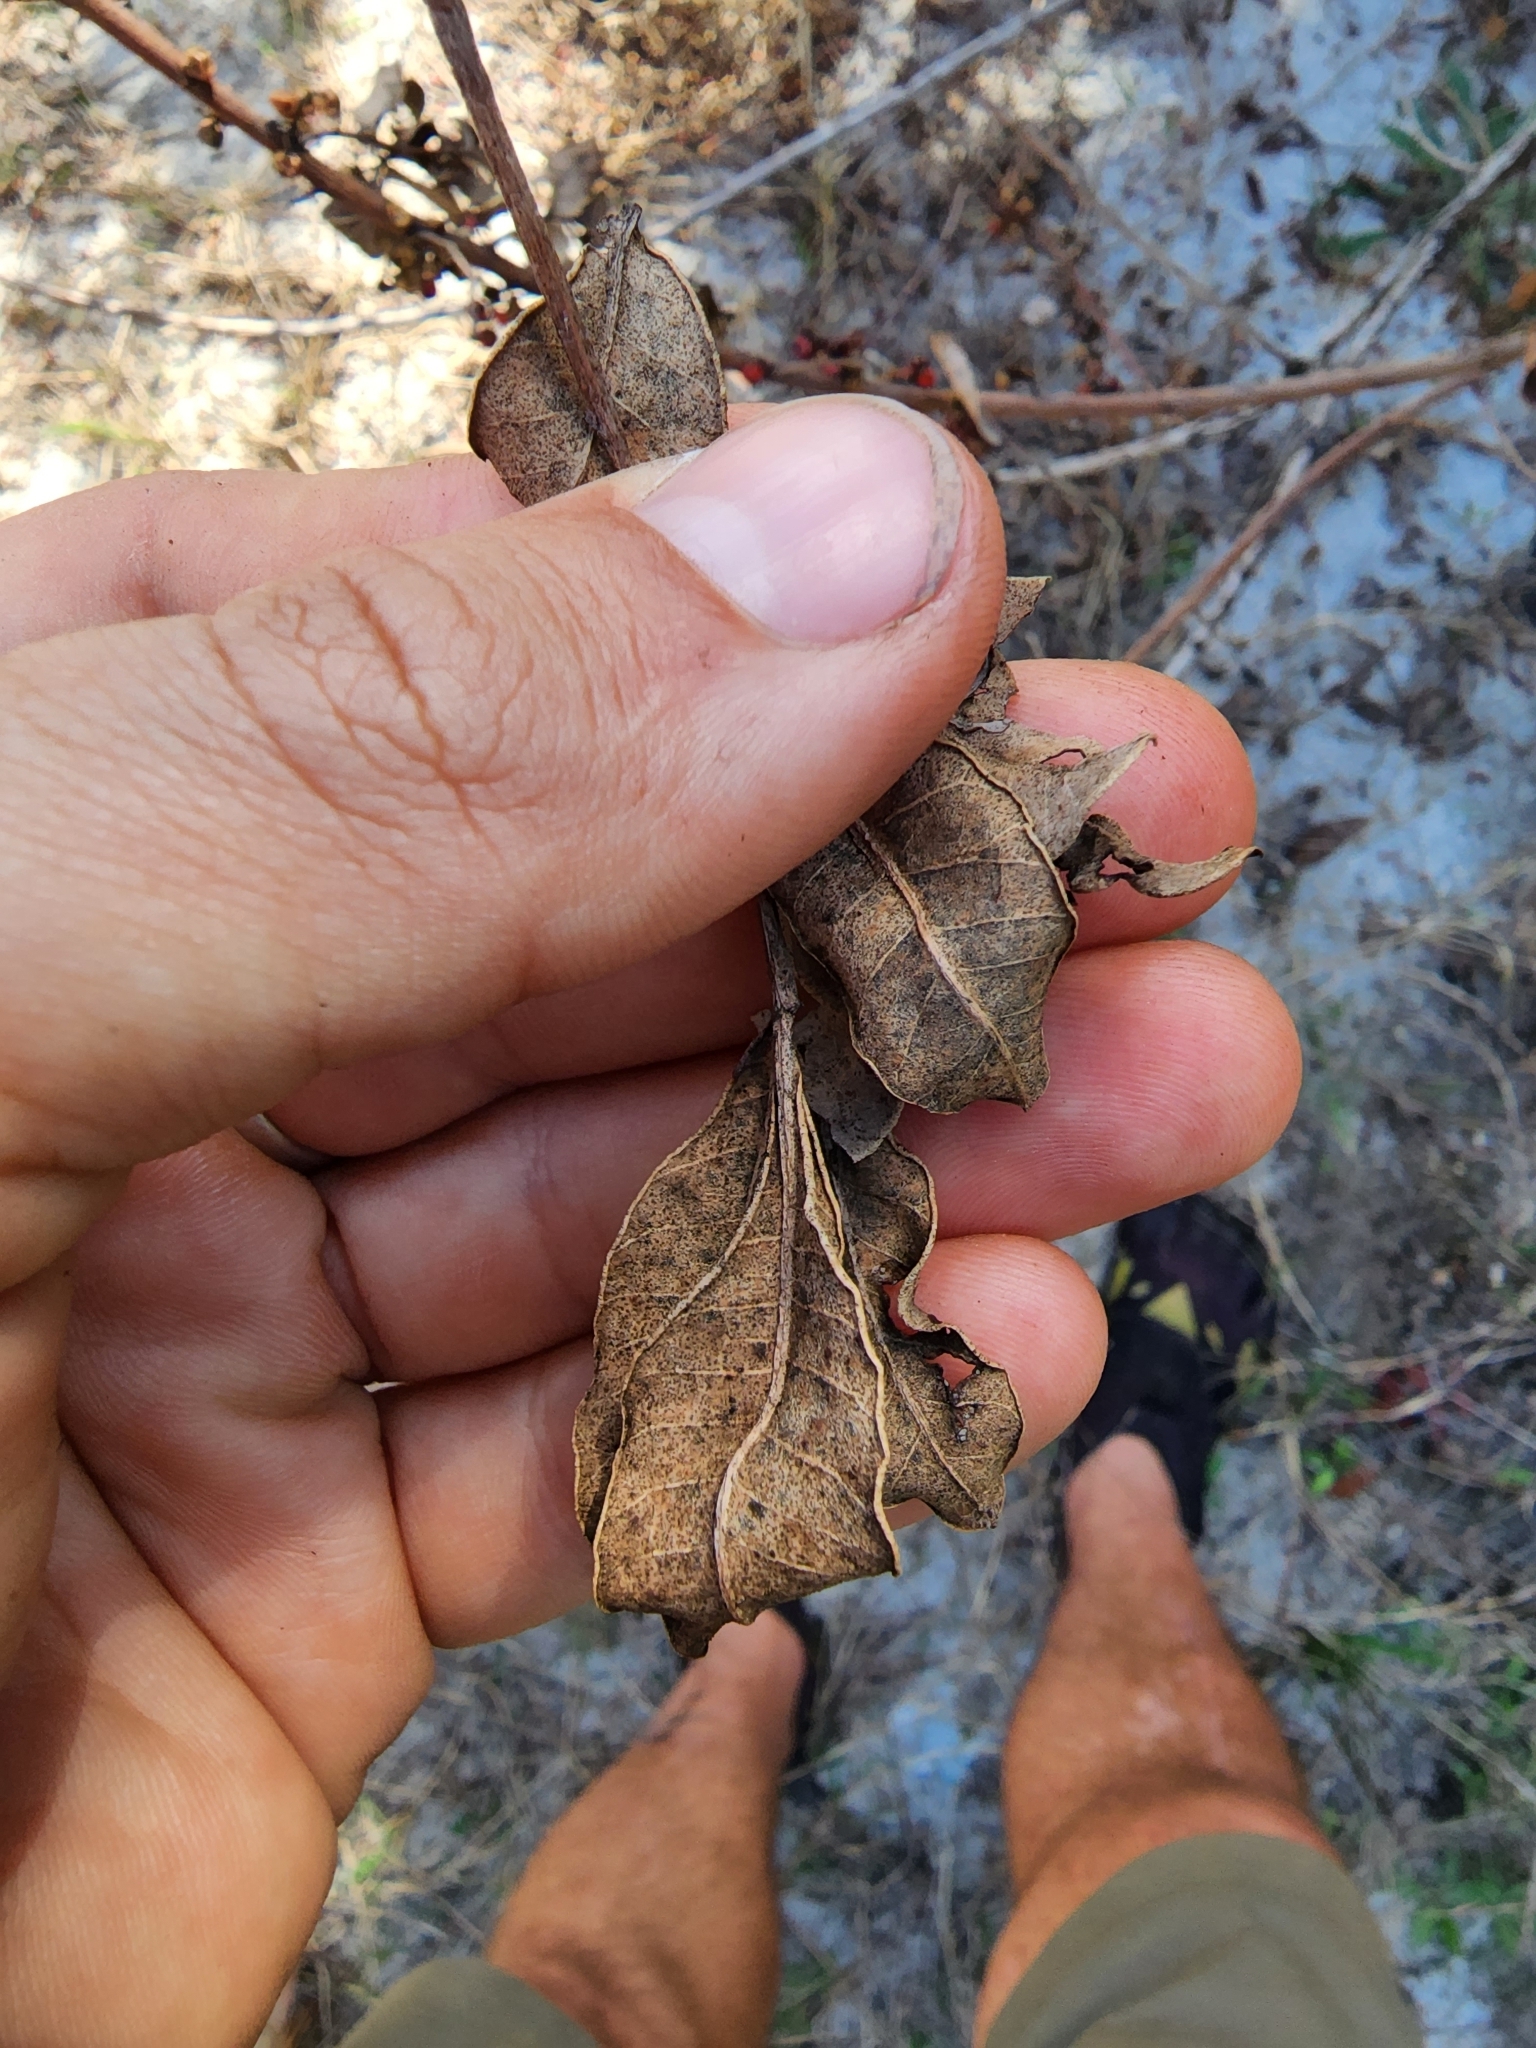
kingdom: Plantae
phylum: Tracheophyta
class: Magnoliopsida
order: Sapindales
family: Anacardiaceae
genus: Schinus
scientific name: Schinus terebinthifolia
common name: Brazilian peppertree
